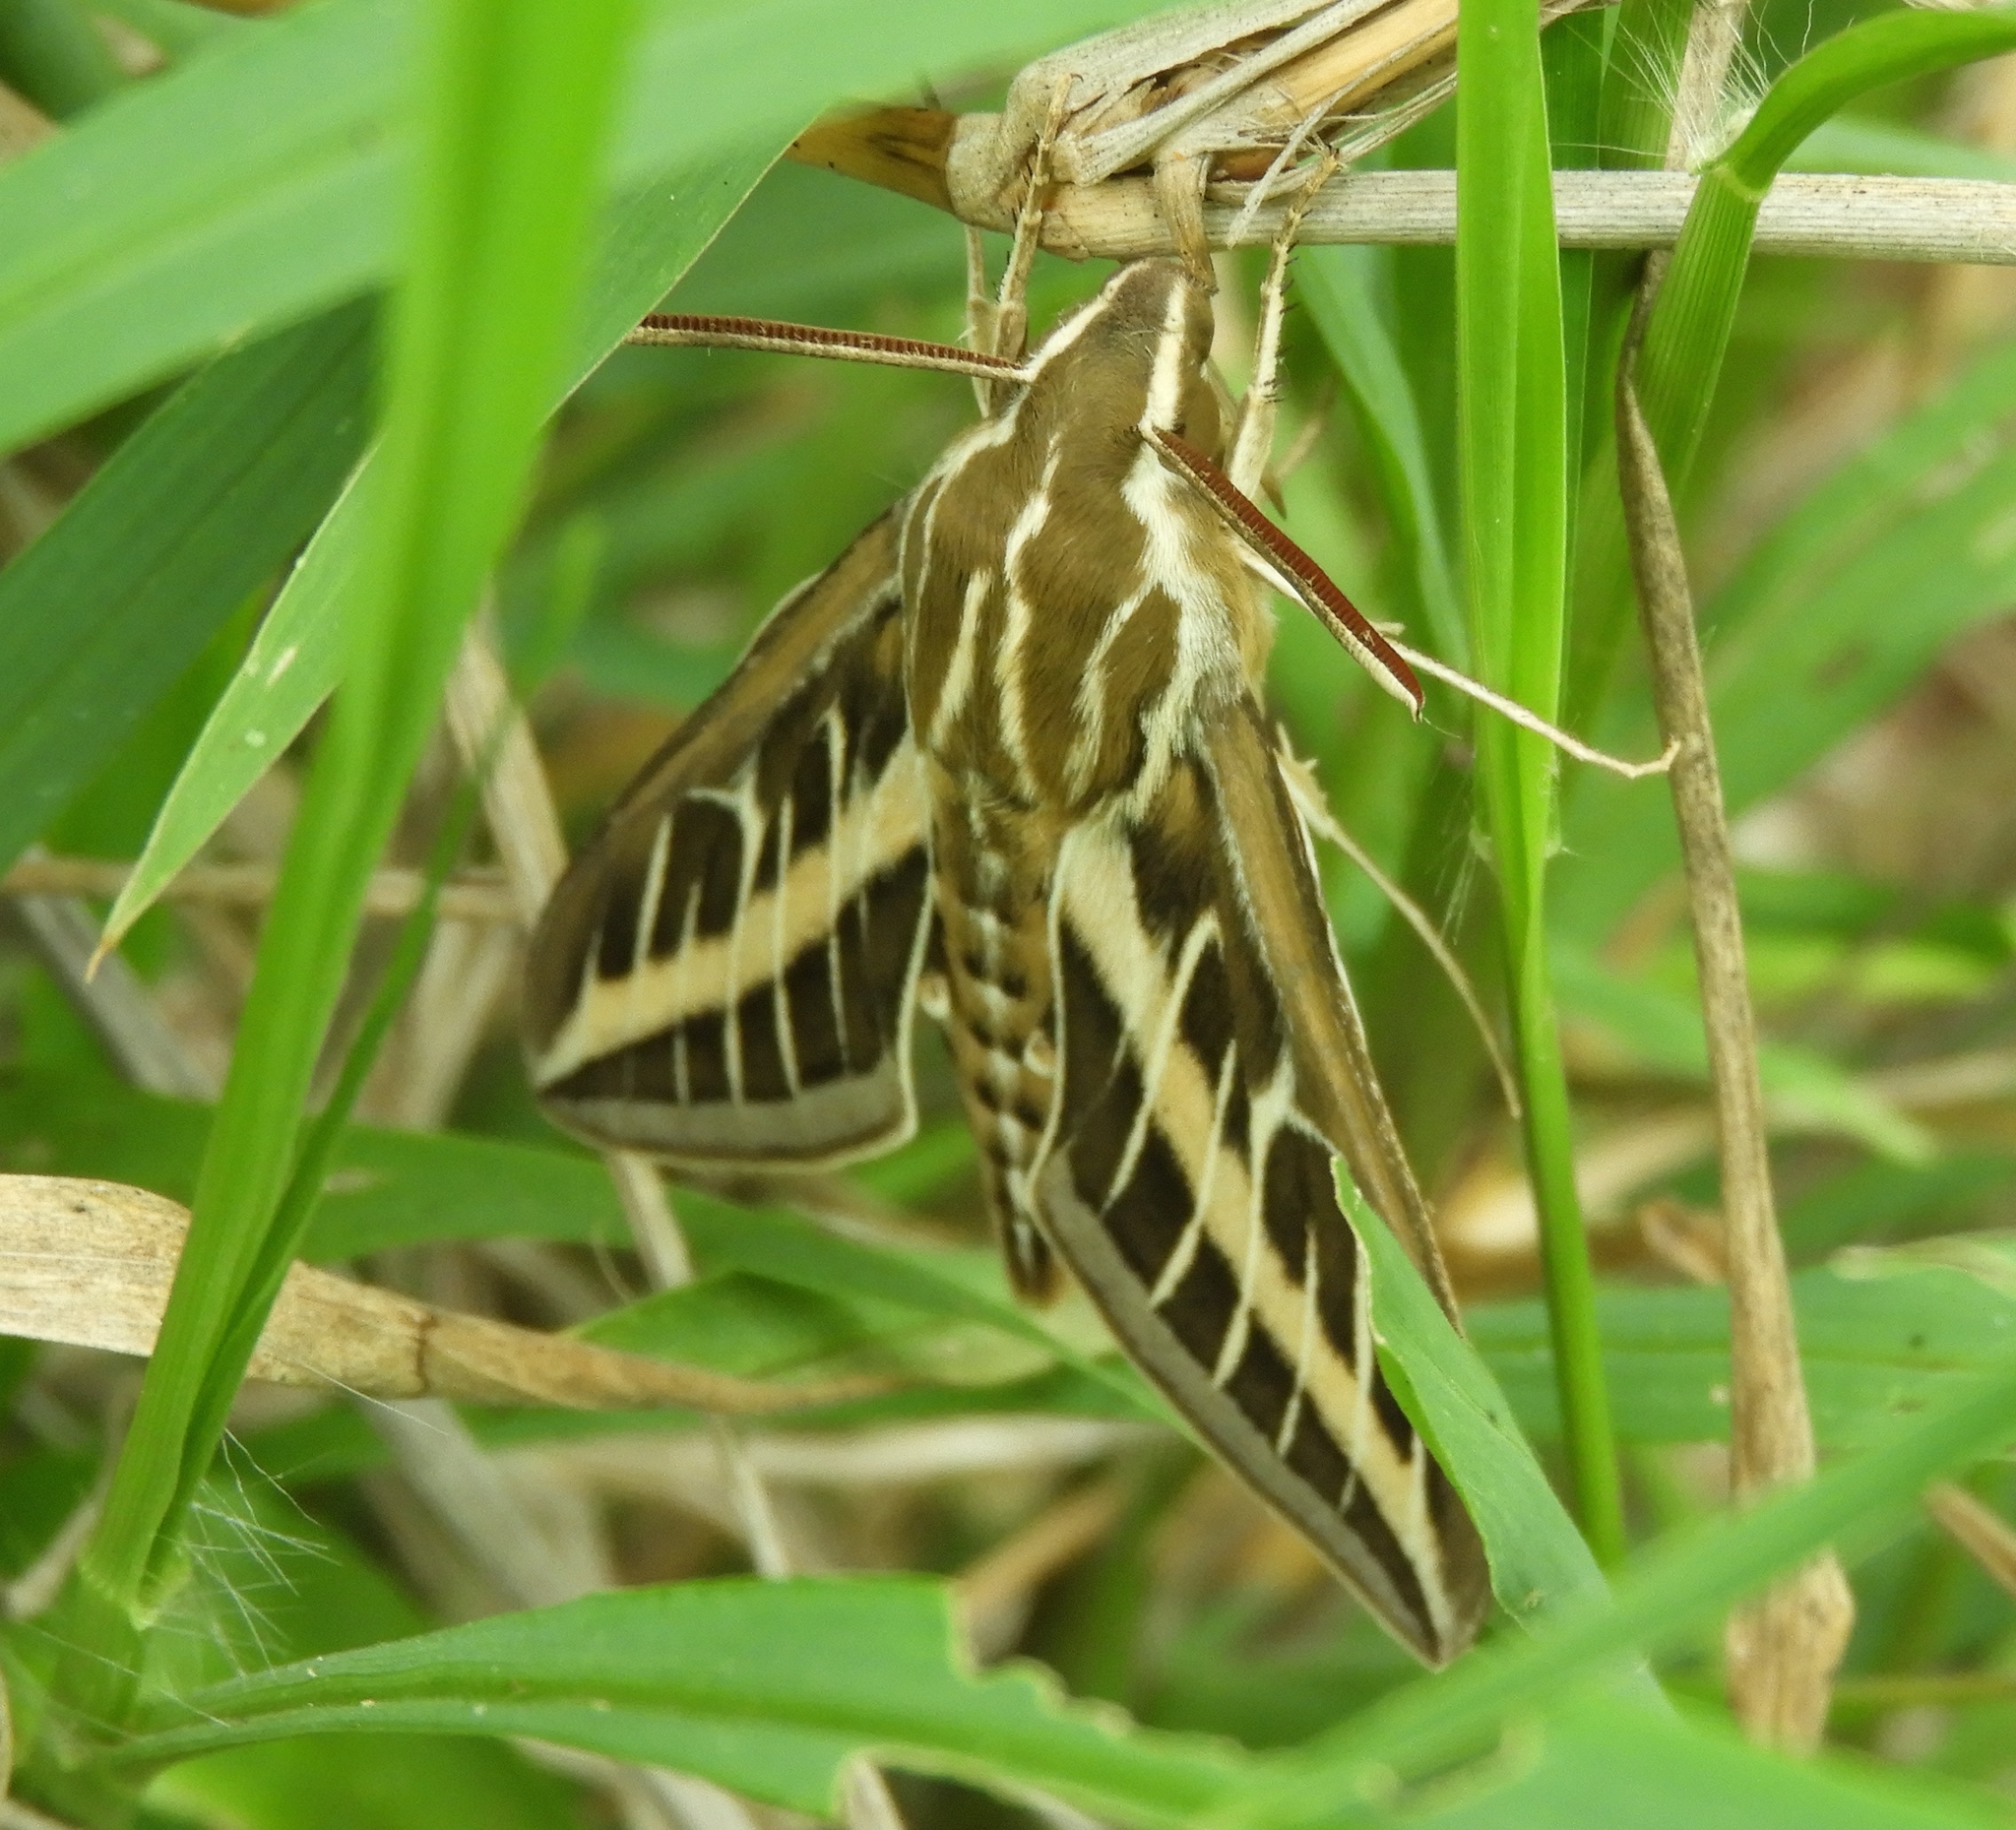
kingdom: Animalia
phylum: Arthropoda
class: Insecta
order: Lepidoptera
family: Sphingidae
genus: Hyles
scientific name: Hyles lineata
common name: White-lined sphinx
